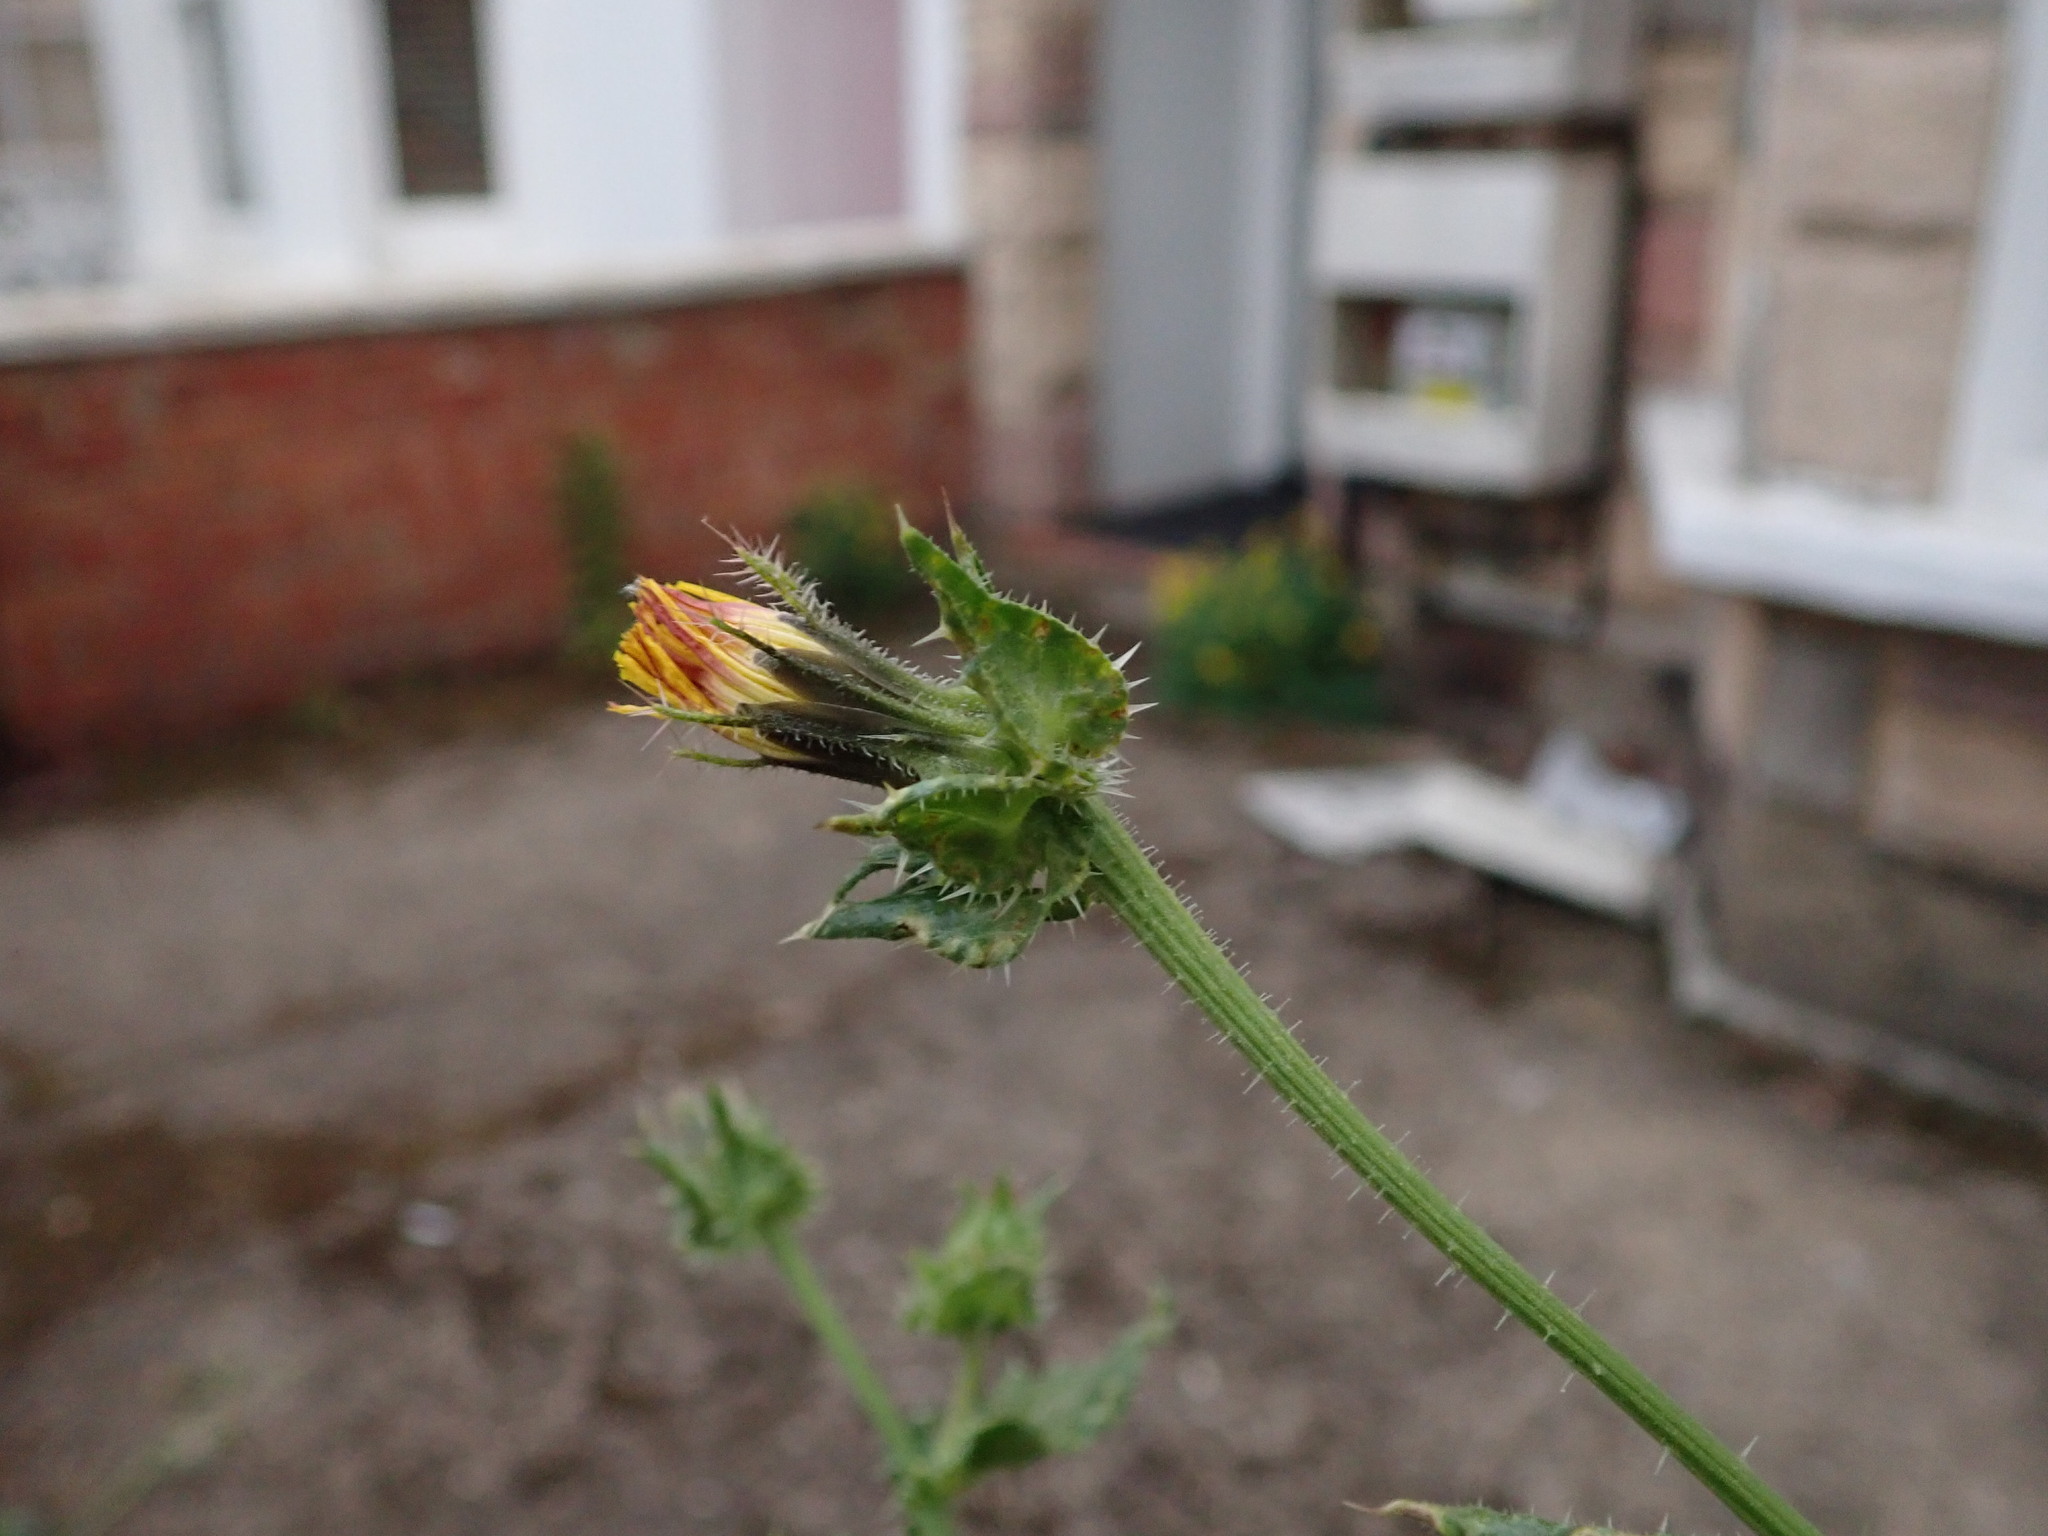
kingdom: Plantae
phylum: Tracheophyta
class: Magnoliopsida
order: Asterales
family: Asteraceae
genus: Helminthotheca
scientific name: Helminthotheca echioides
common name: Ox-tongue
